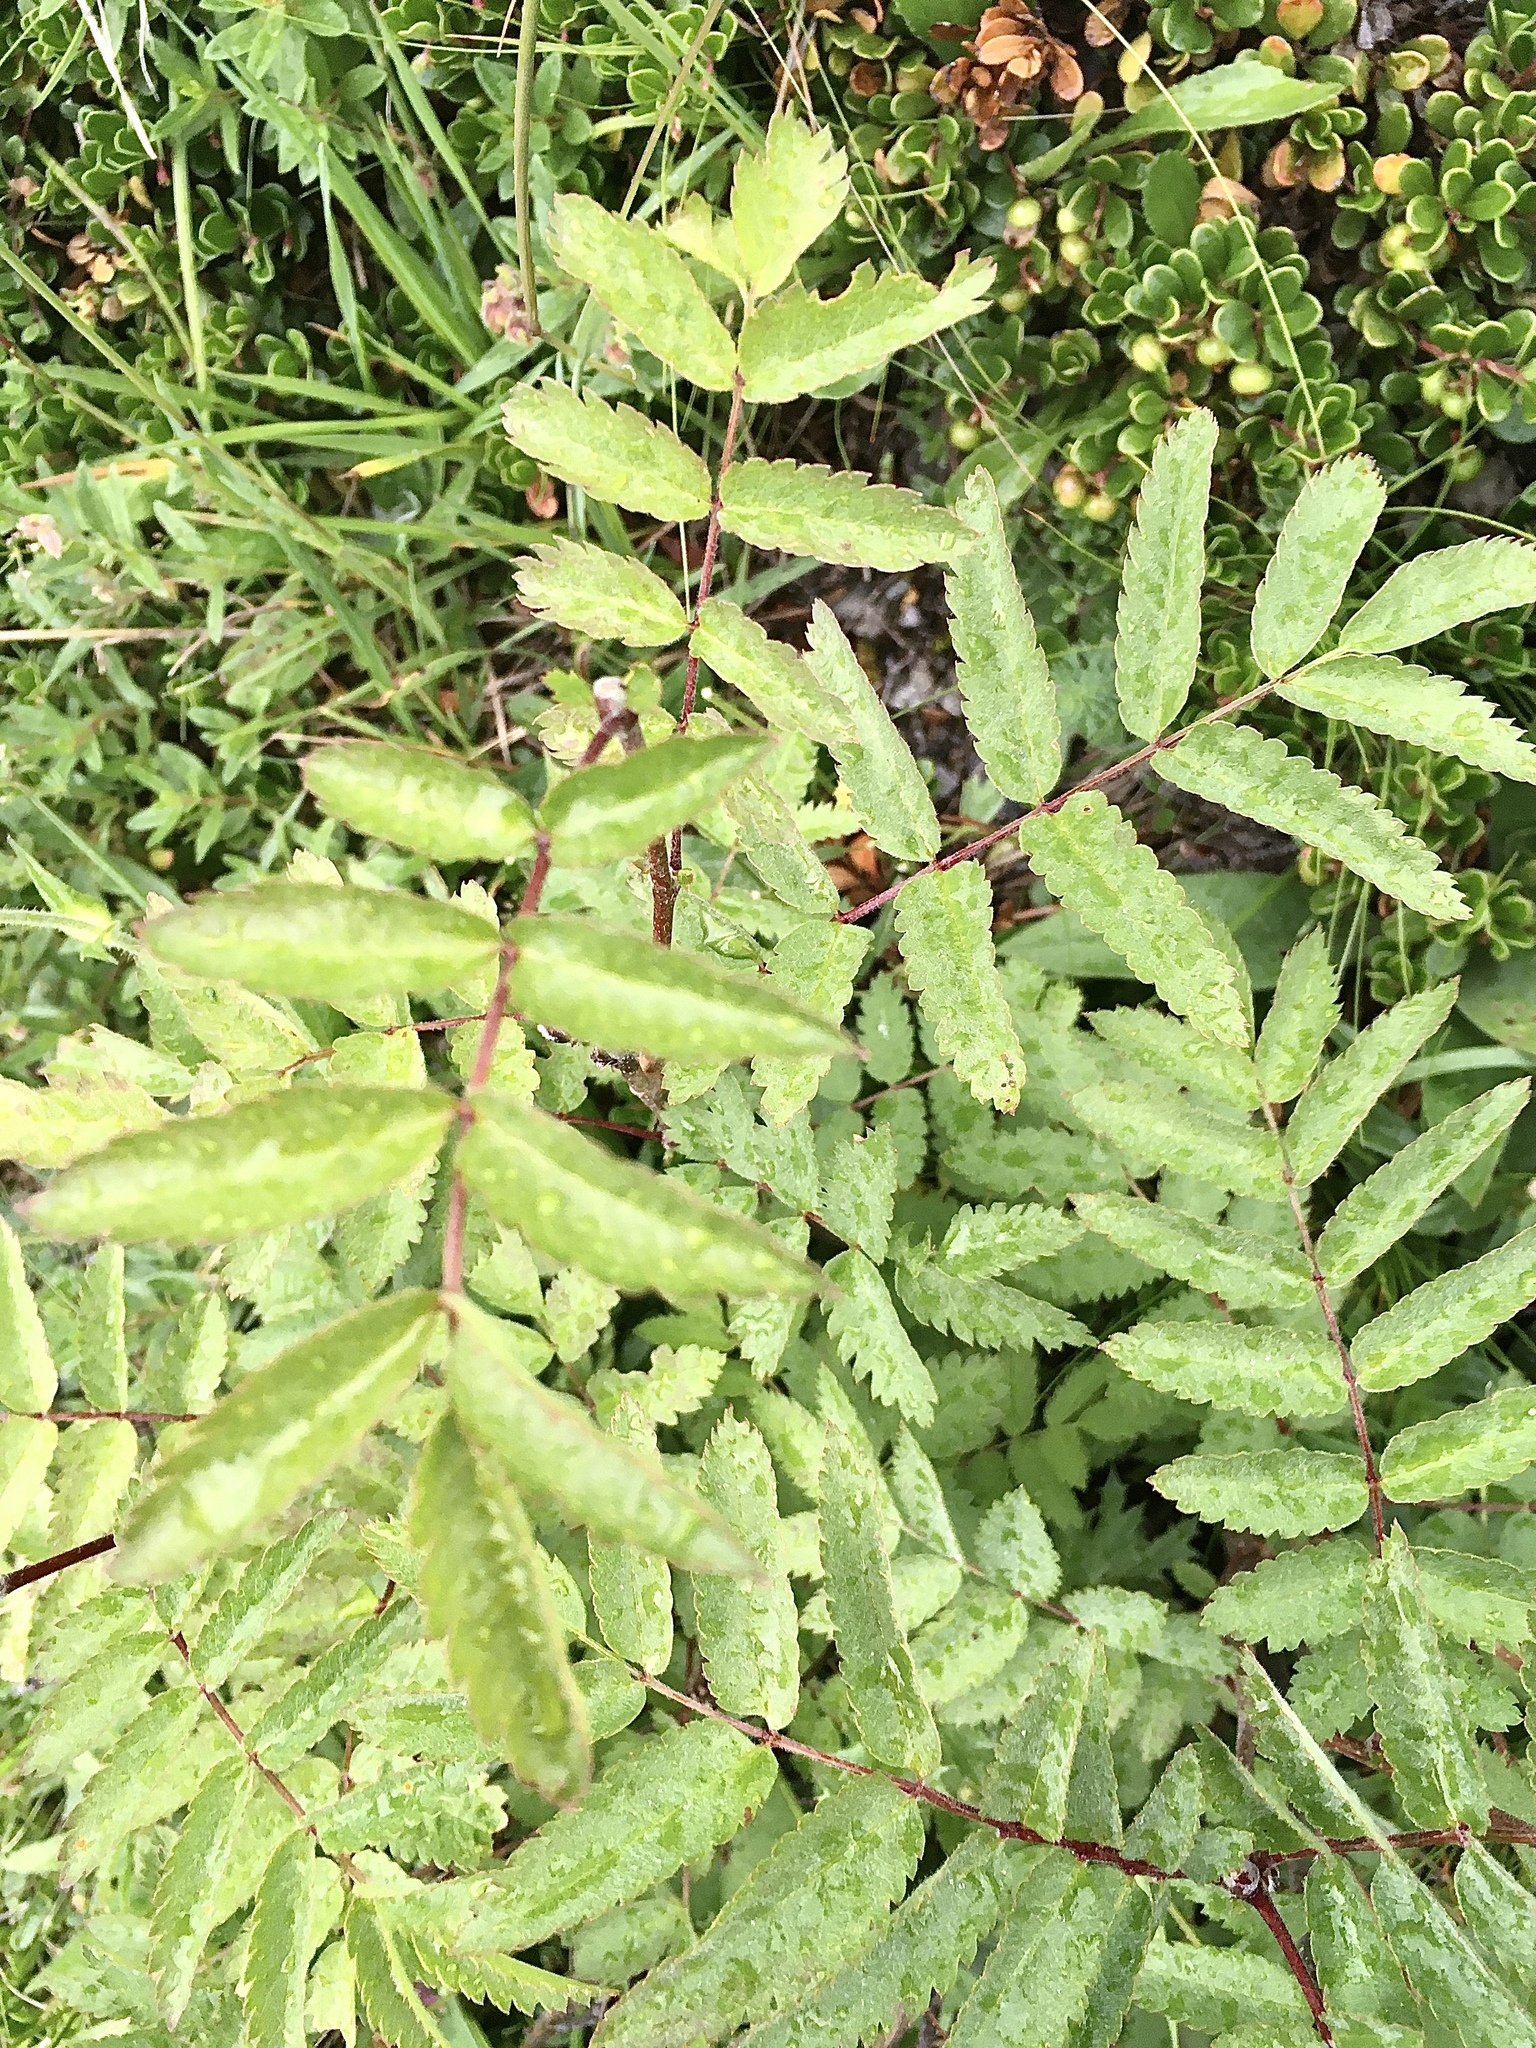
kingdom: Plantae
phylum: Tracheophyta
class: Magnoliopsida
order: Rosales
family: Rosaceae
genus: Sorbus
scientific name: Sorbus aucuparia
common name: Rowan
